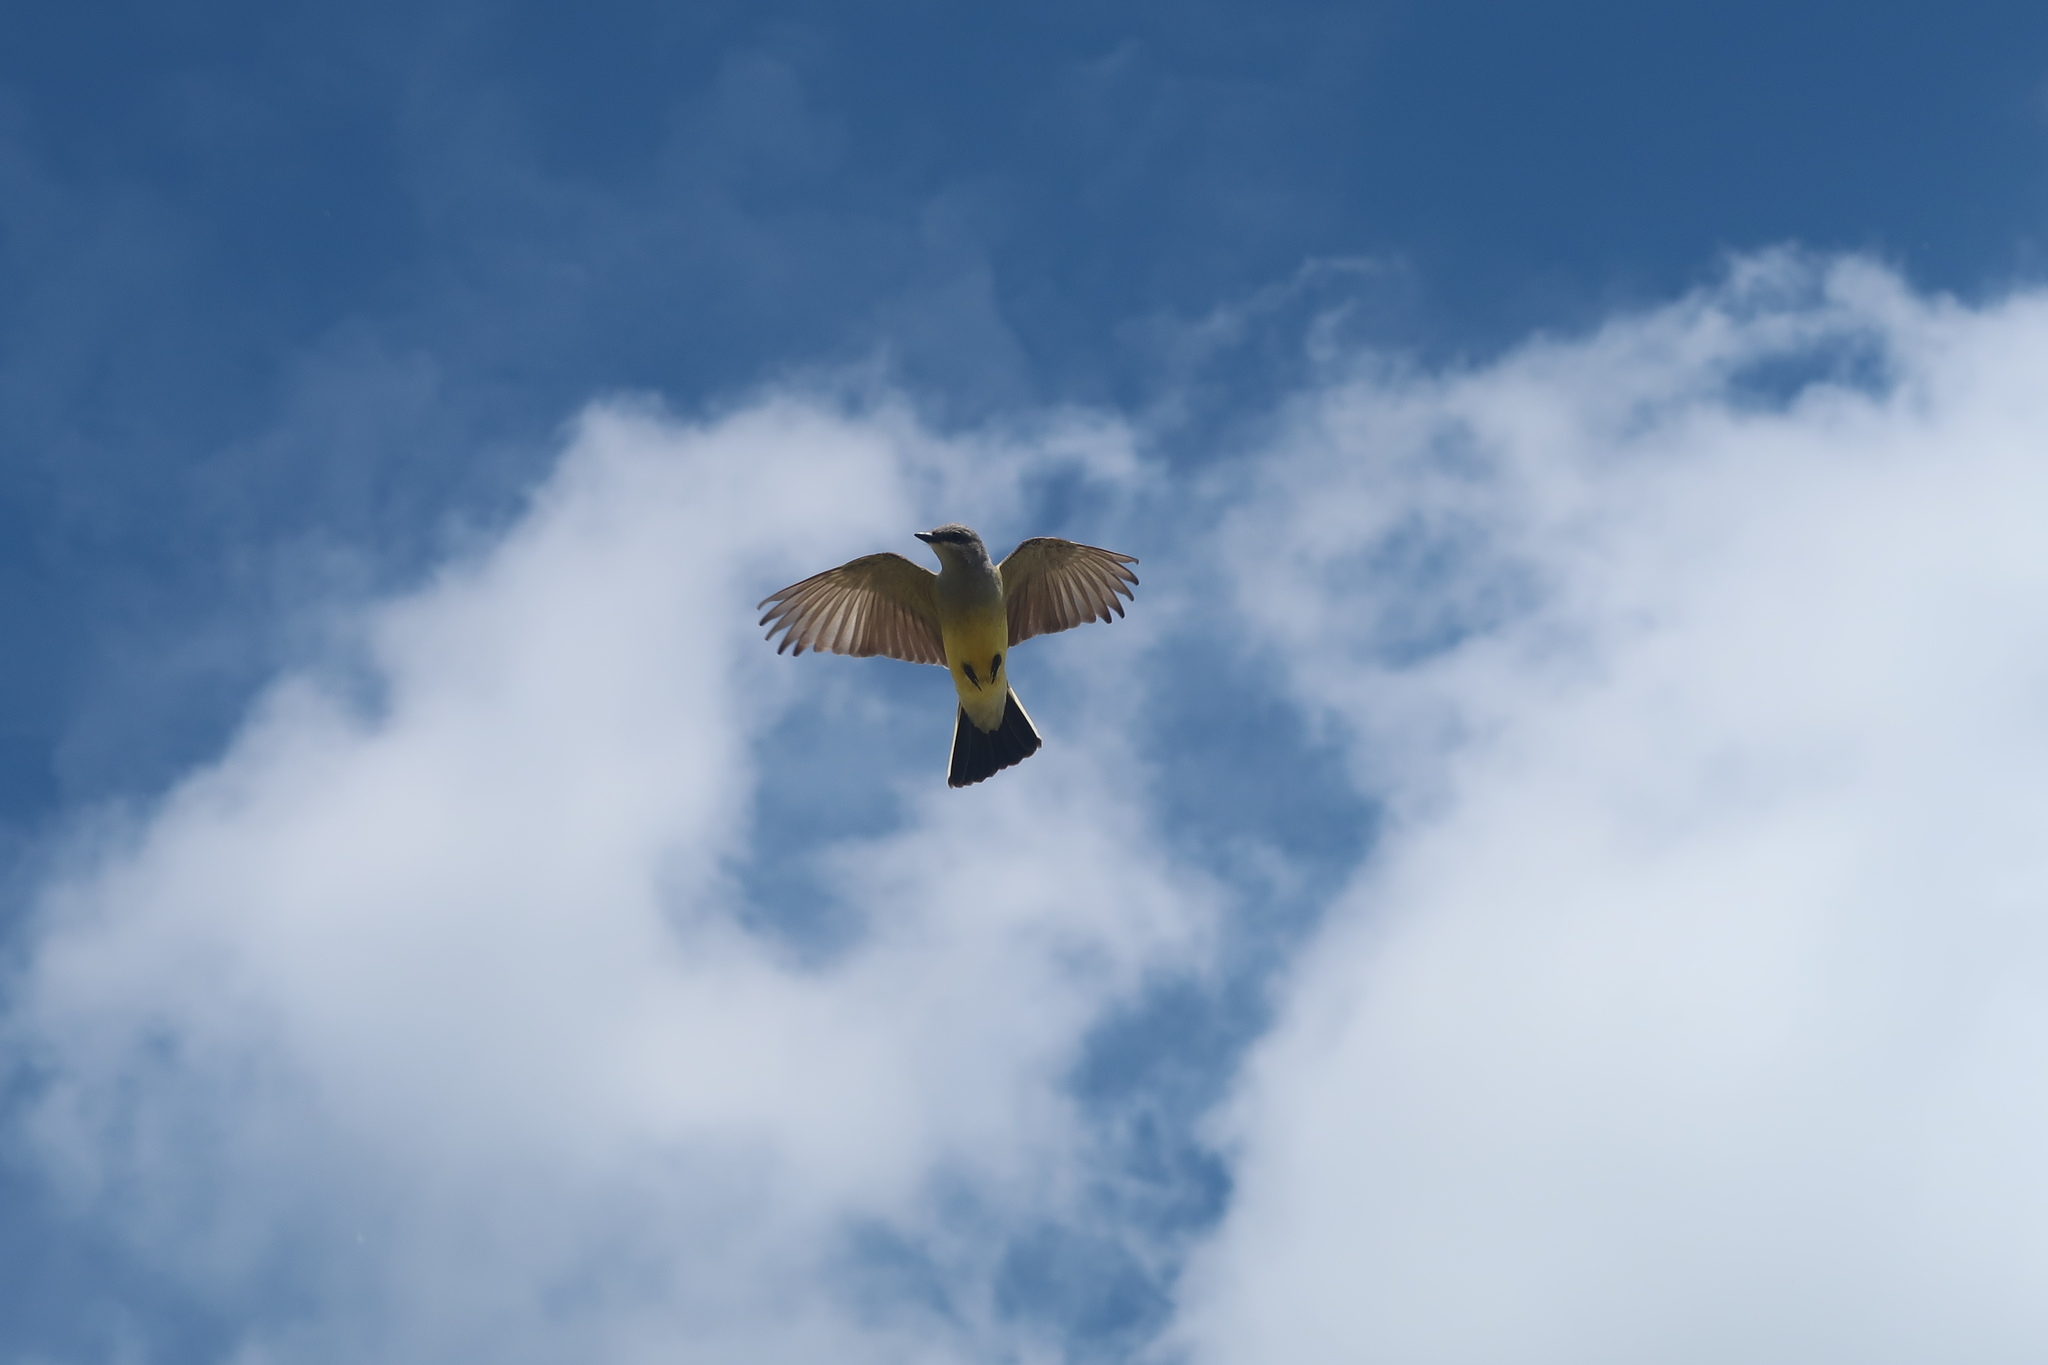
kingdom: Animalia
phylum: Chordata
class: Aves
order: Passeriformes
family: Tyrannidae
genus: Tyrannus
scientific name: Tyrannus verticalis
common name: Western kingbird
